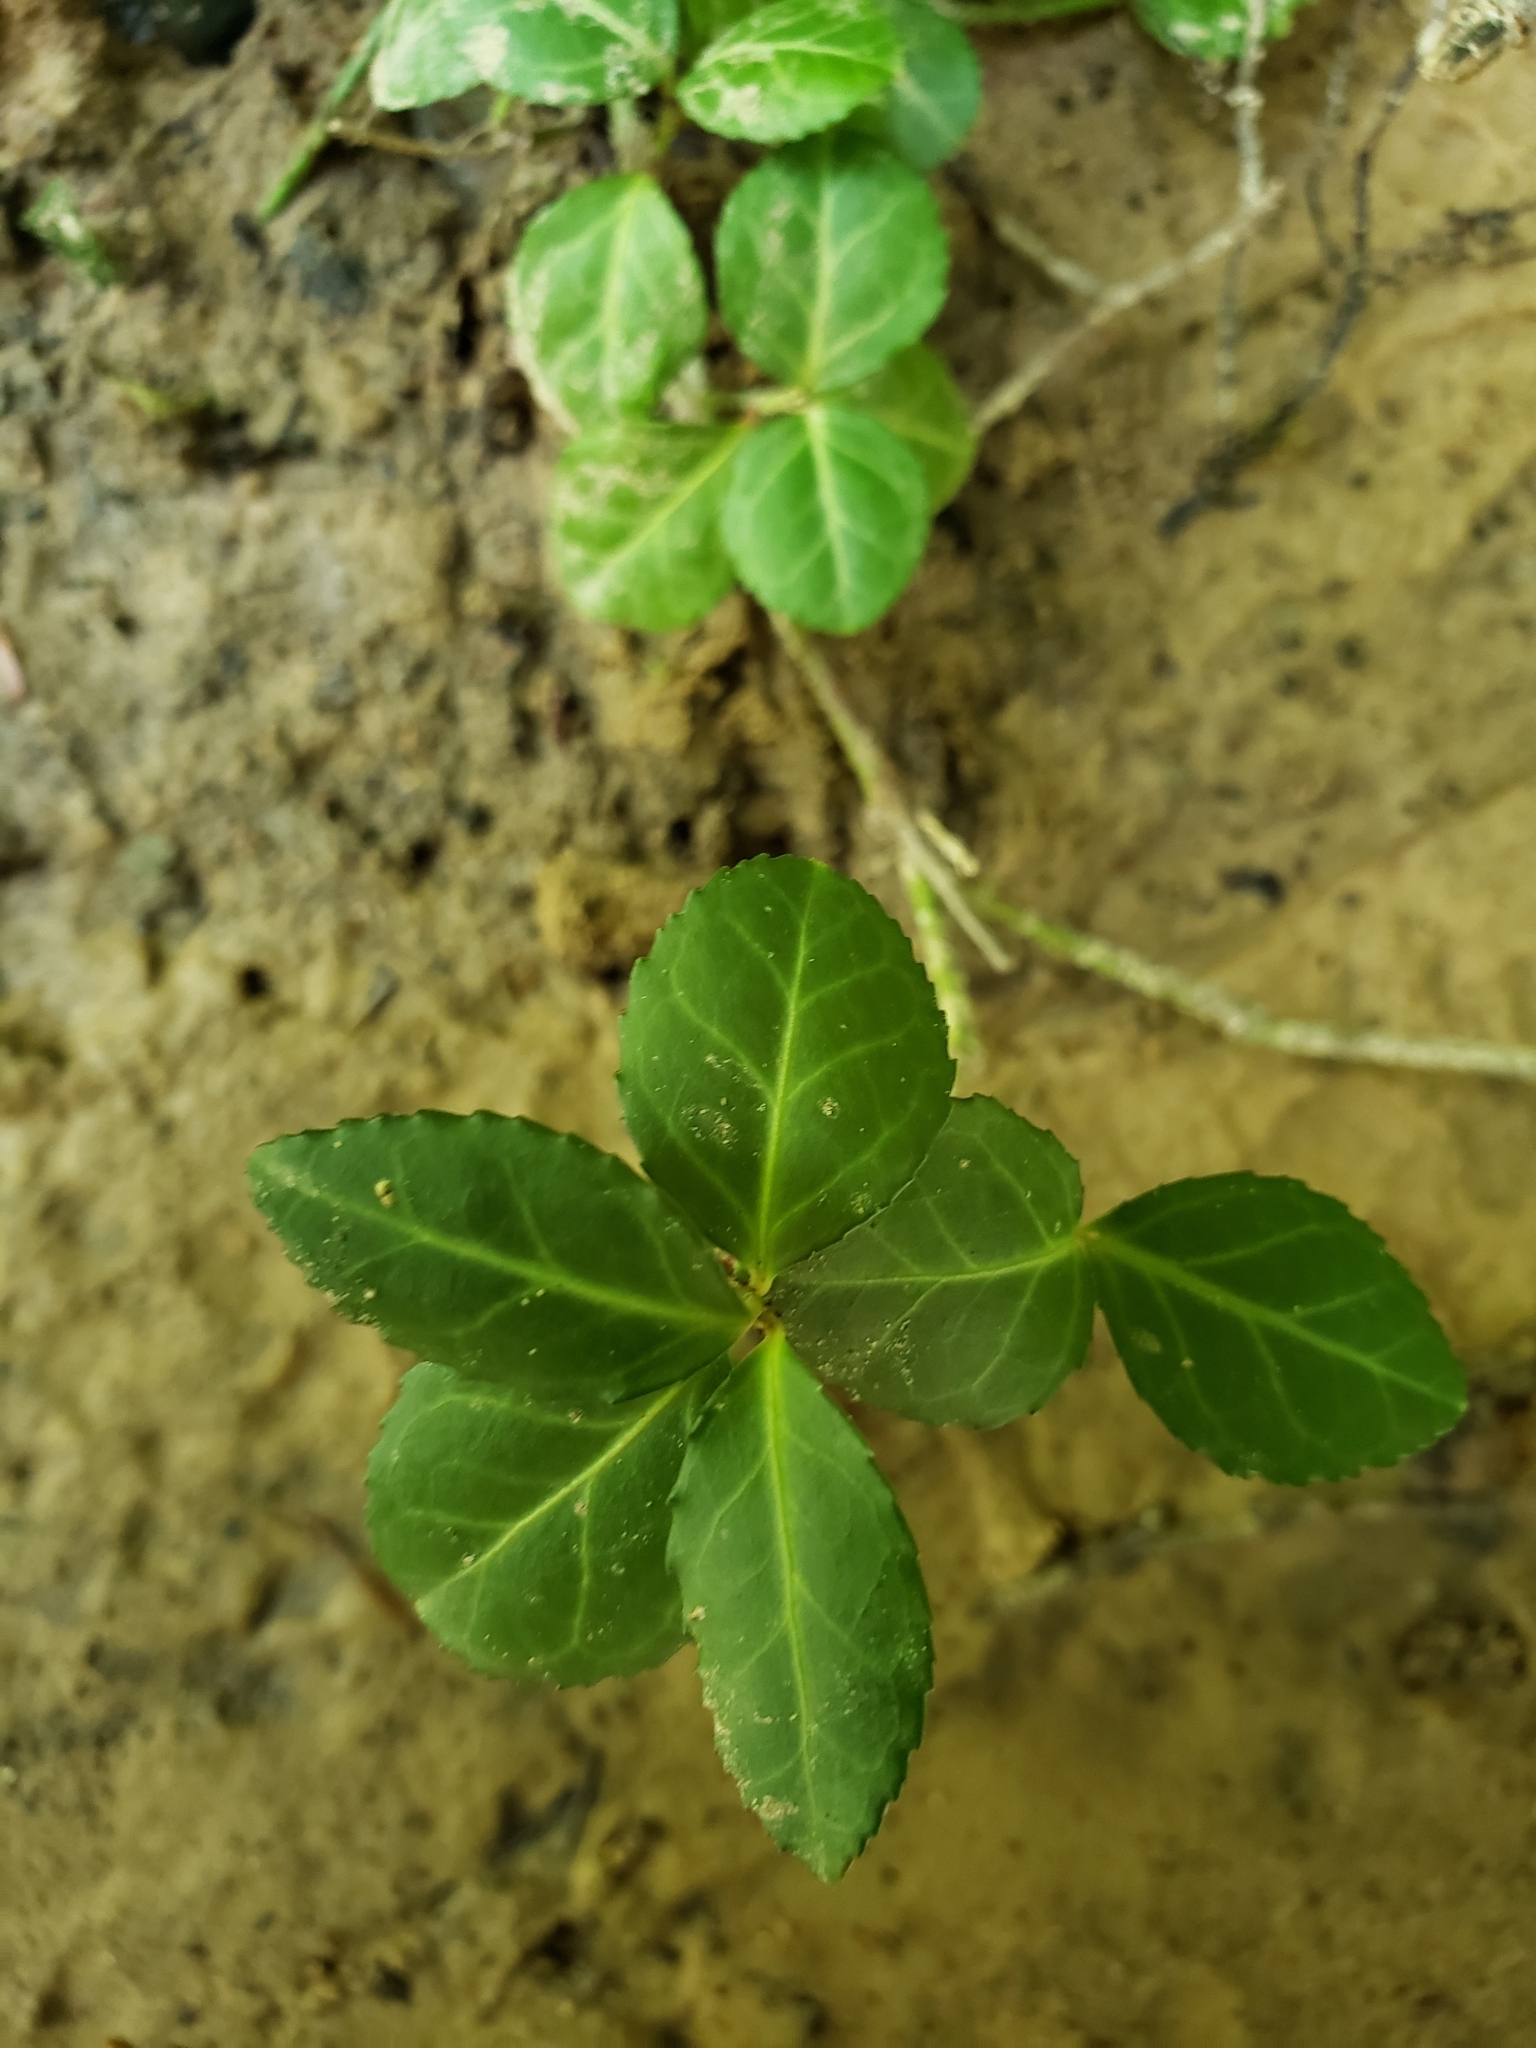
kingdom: Plantae
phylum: Tracheophyta
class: Magnoliopsida
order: Celastrales
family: Celastraceae
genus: Euonymus
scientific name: Euonymus fortunei
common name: Climbing euonymus
